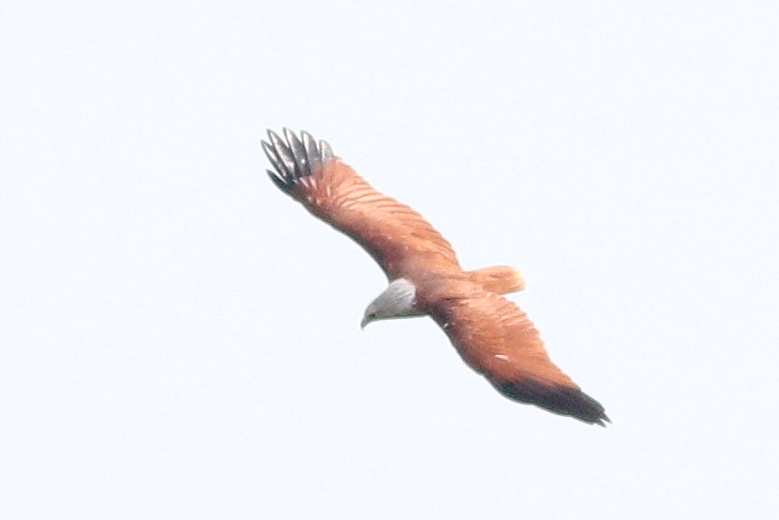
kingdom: Animalia
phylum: Chordata
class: Aves
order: Accipitriformes
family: Accipitridae
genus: Haliastur
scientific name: Haliastur indus
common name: Brahminy kite
